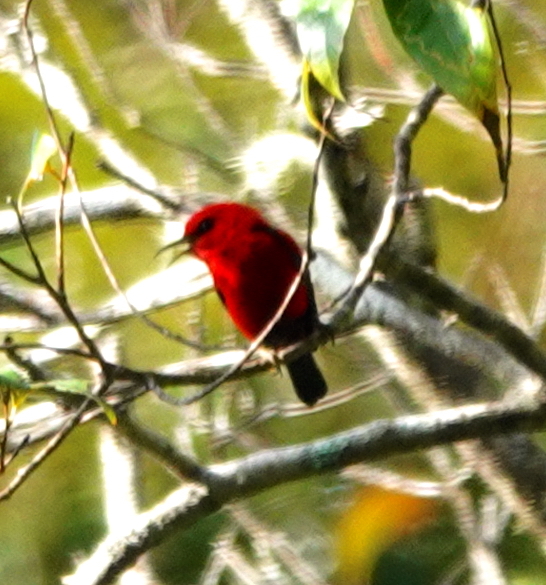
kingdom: Animalia
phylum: Chordata
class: Aves
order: Passeriformes
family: Meliphagidae
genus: Myzomela
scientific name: Myzomela wakoloensis
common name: Wakolo myzomela
